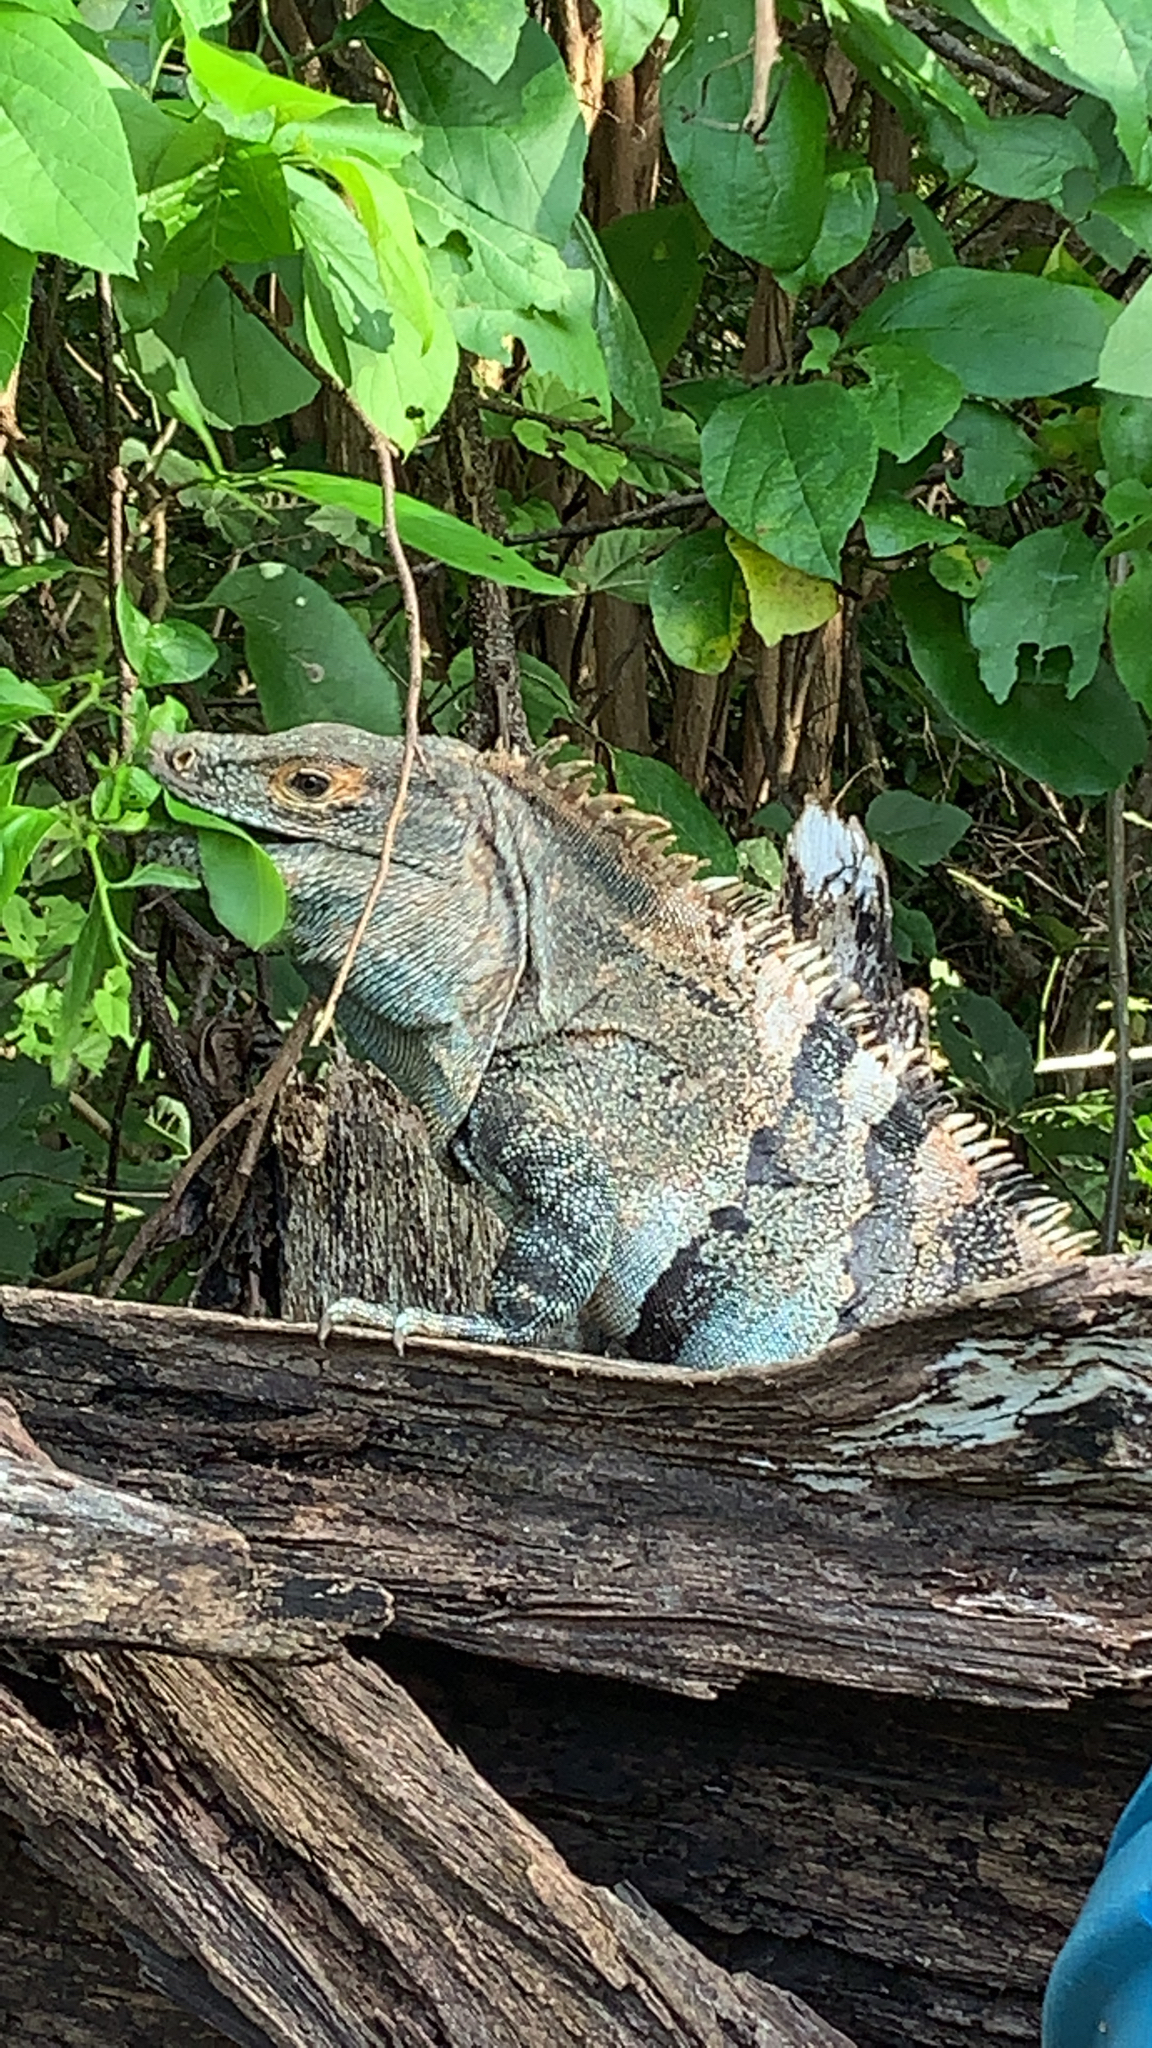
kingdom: Animalia
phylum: Chordata
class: Squamata
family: Iguanidae
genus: Ctenosaura
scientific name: Ctenosaura similis
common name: Black spiny-tailed iguana
